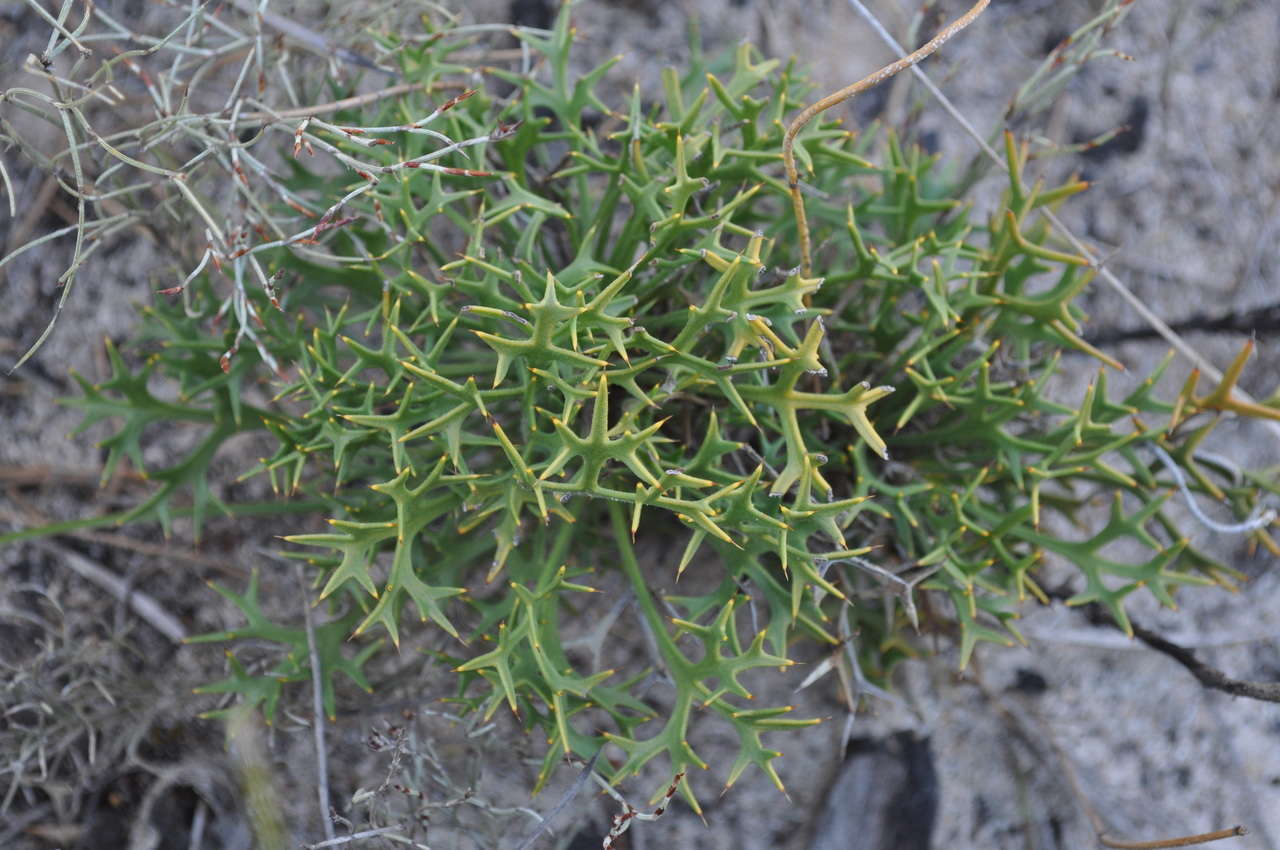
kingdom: Plantae
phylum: Tracheophyta
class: Magnoliopsida
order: Proteales
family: Proteaceae
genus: Isopogon
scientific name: Isopogon ceratophyllus
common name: Horny cone-bush
